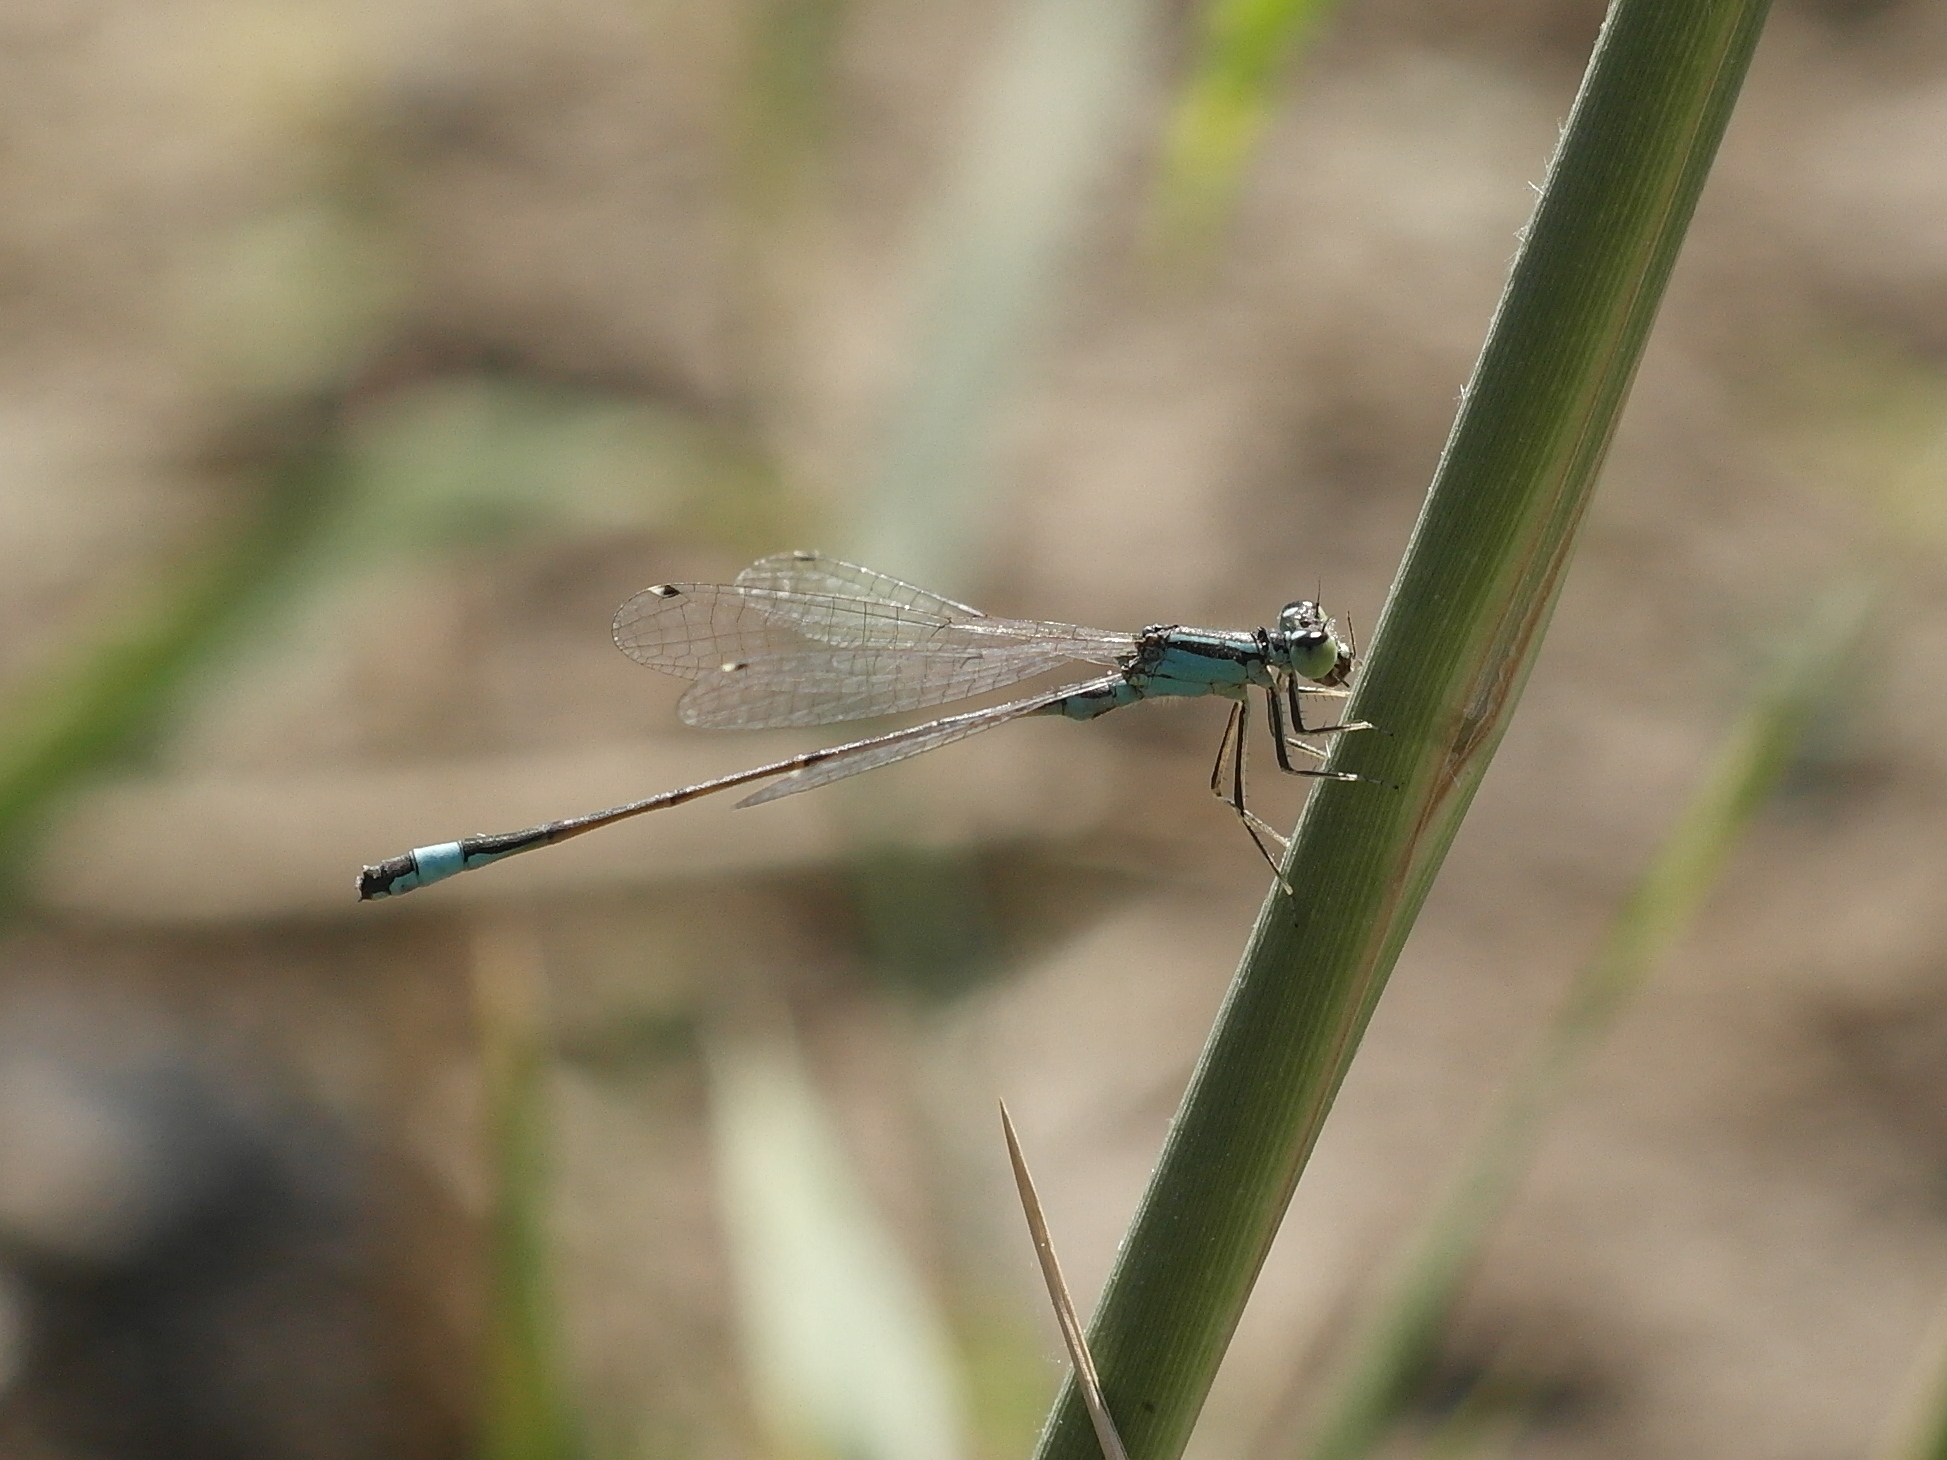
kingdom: Animalia
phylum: Arthropoda
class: Insecta
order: Odonata
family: Coenagrionidae
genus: Ischnura
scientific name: Ischnura elegans
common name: Blue-tailed damselfly
